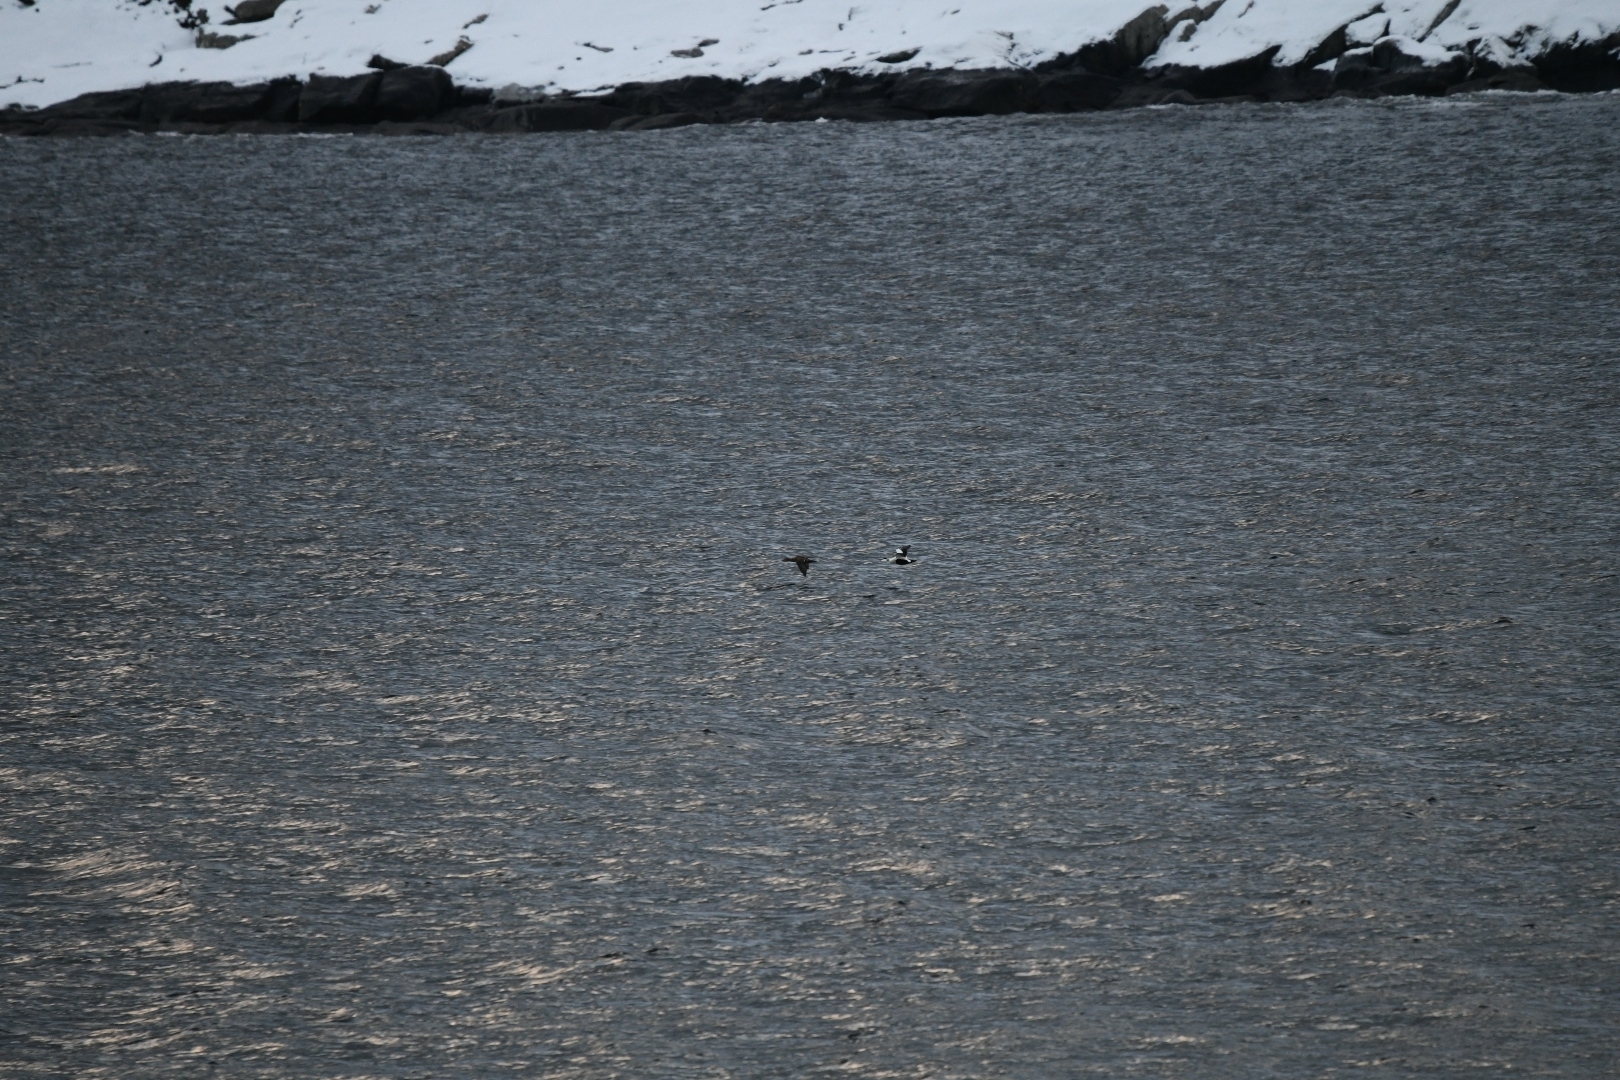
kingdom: Animalia
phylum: Chordata
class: Aves
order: Anseriformes
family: Anatidae
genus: Somateria
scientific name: Somateria mollissima
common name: Common eider
